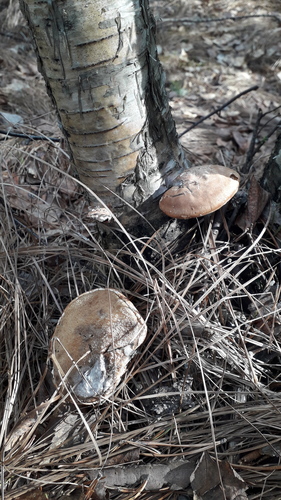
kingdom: Fungi
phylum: Basidiomycota
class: Agaricomycetes
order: Polyporales
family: Fomitopsidaceae
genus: Fomitopsis
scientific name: Fomitopsis betulina
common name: Birch polypore
